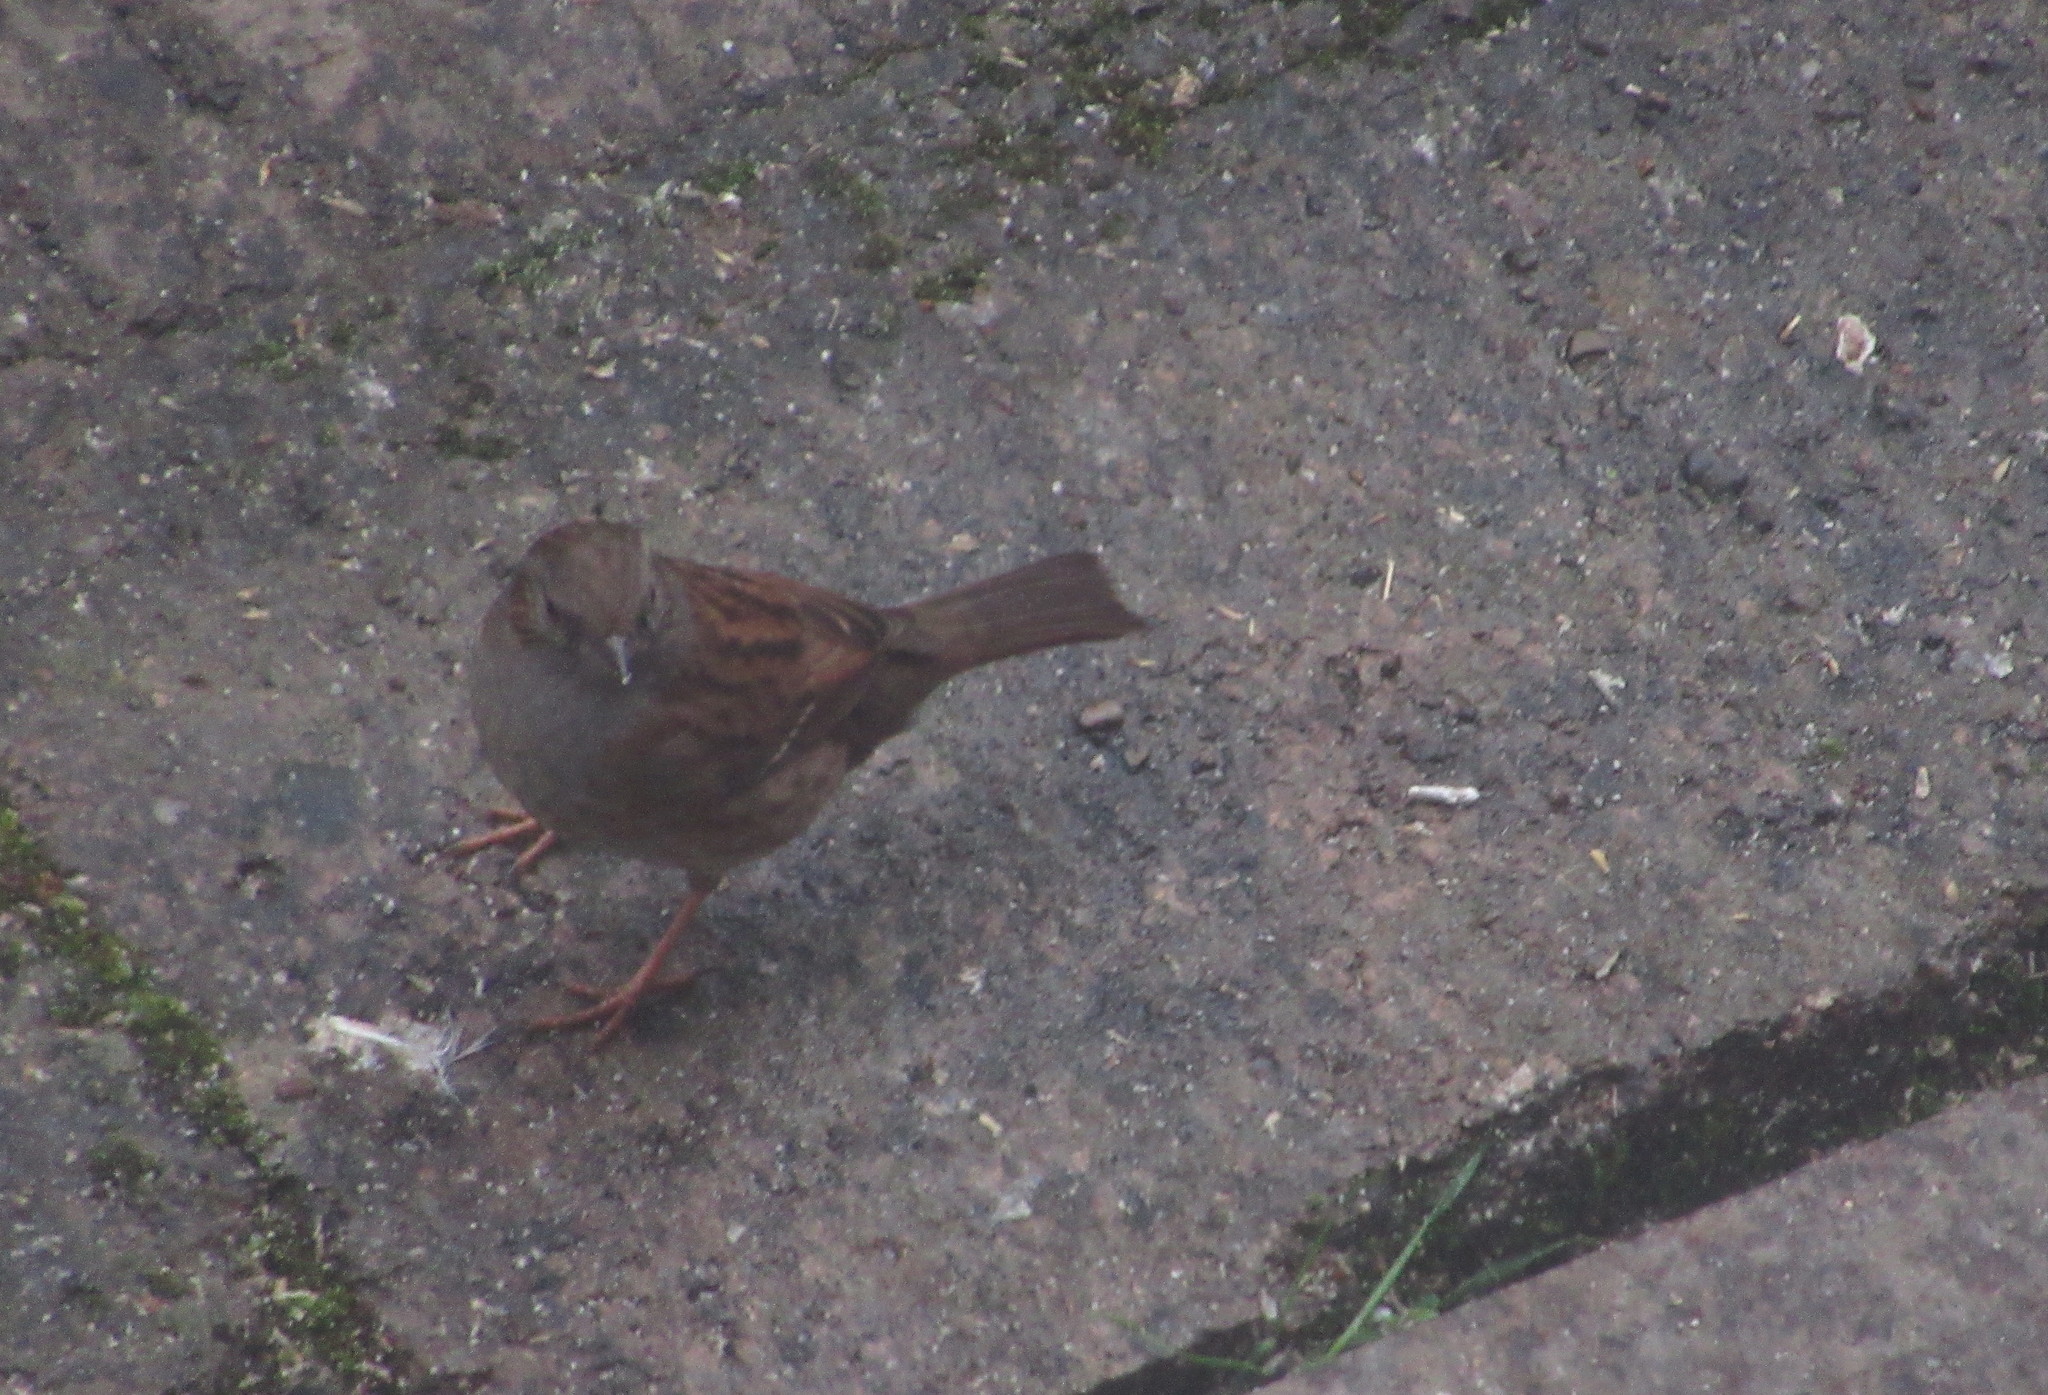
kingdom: Animalia
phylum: Chordata
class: Aves
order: Passeriformes
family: Prunellidae
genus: Prunella
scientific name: Prunella modularis
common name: Dunnock
